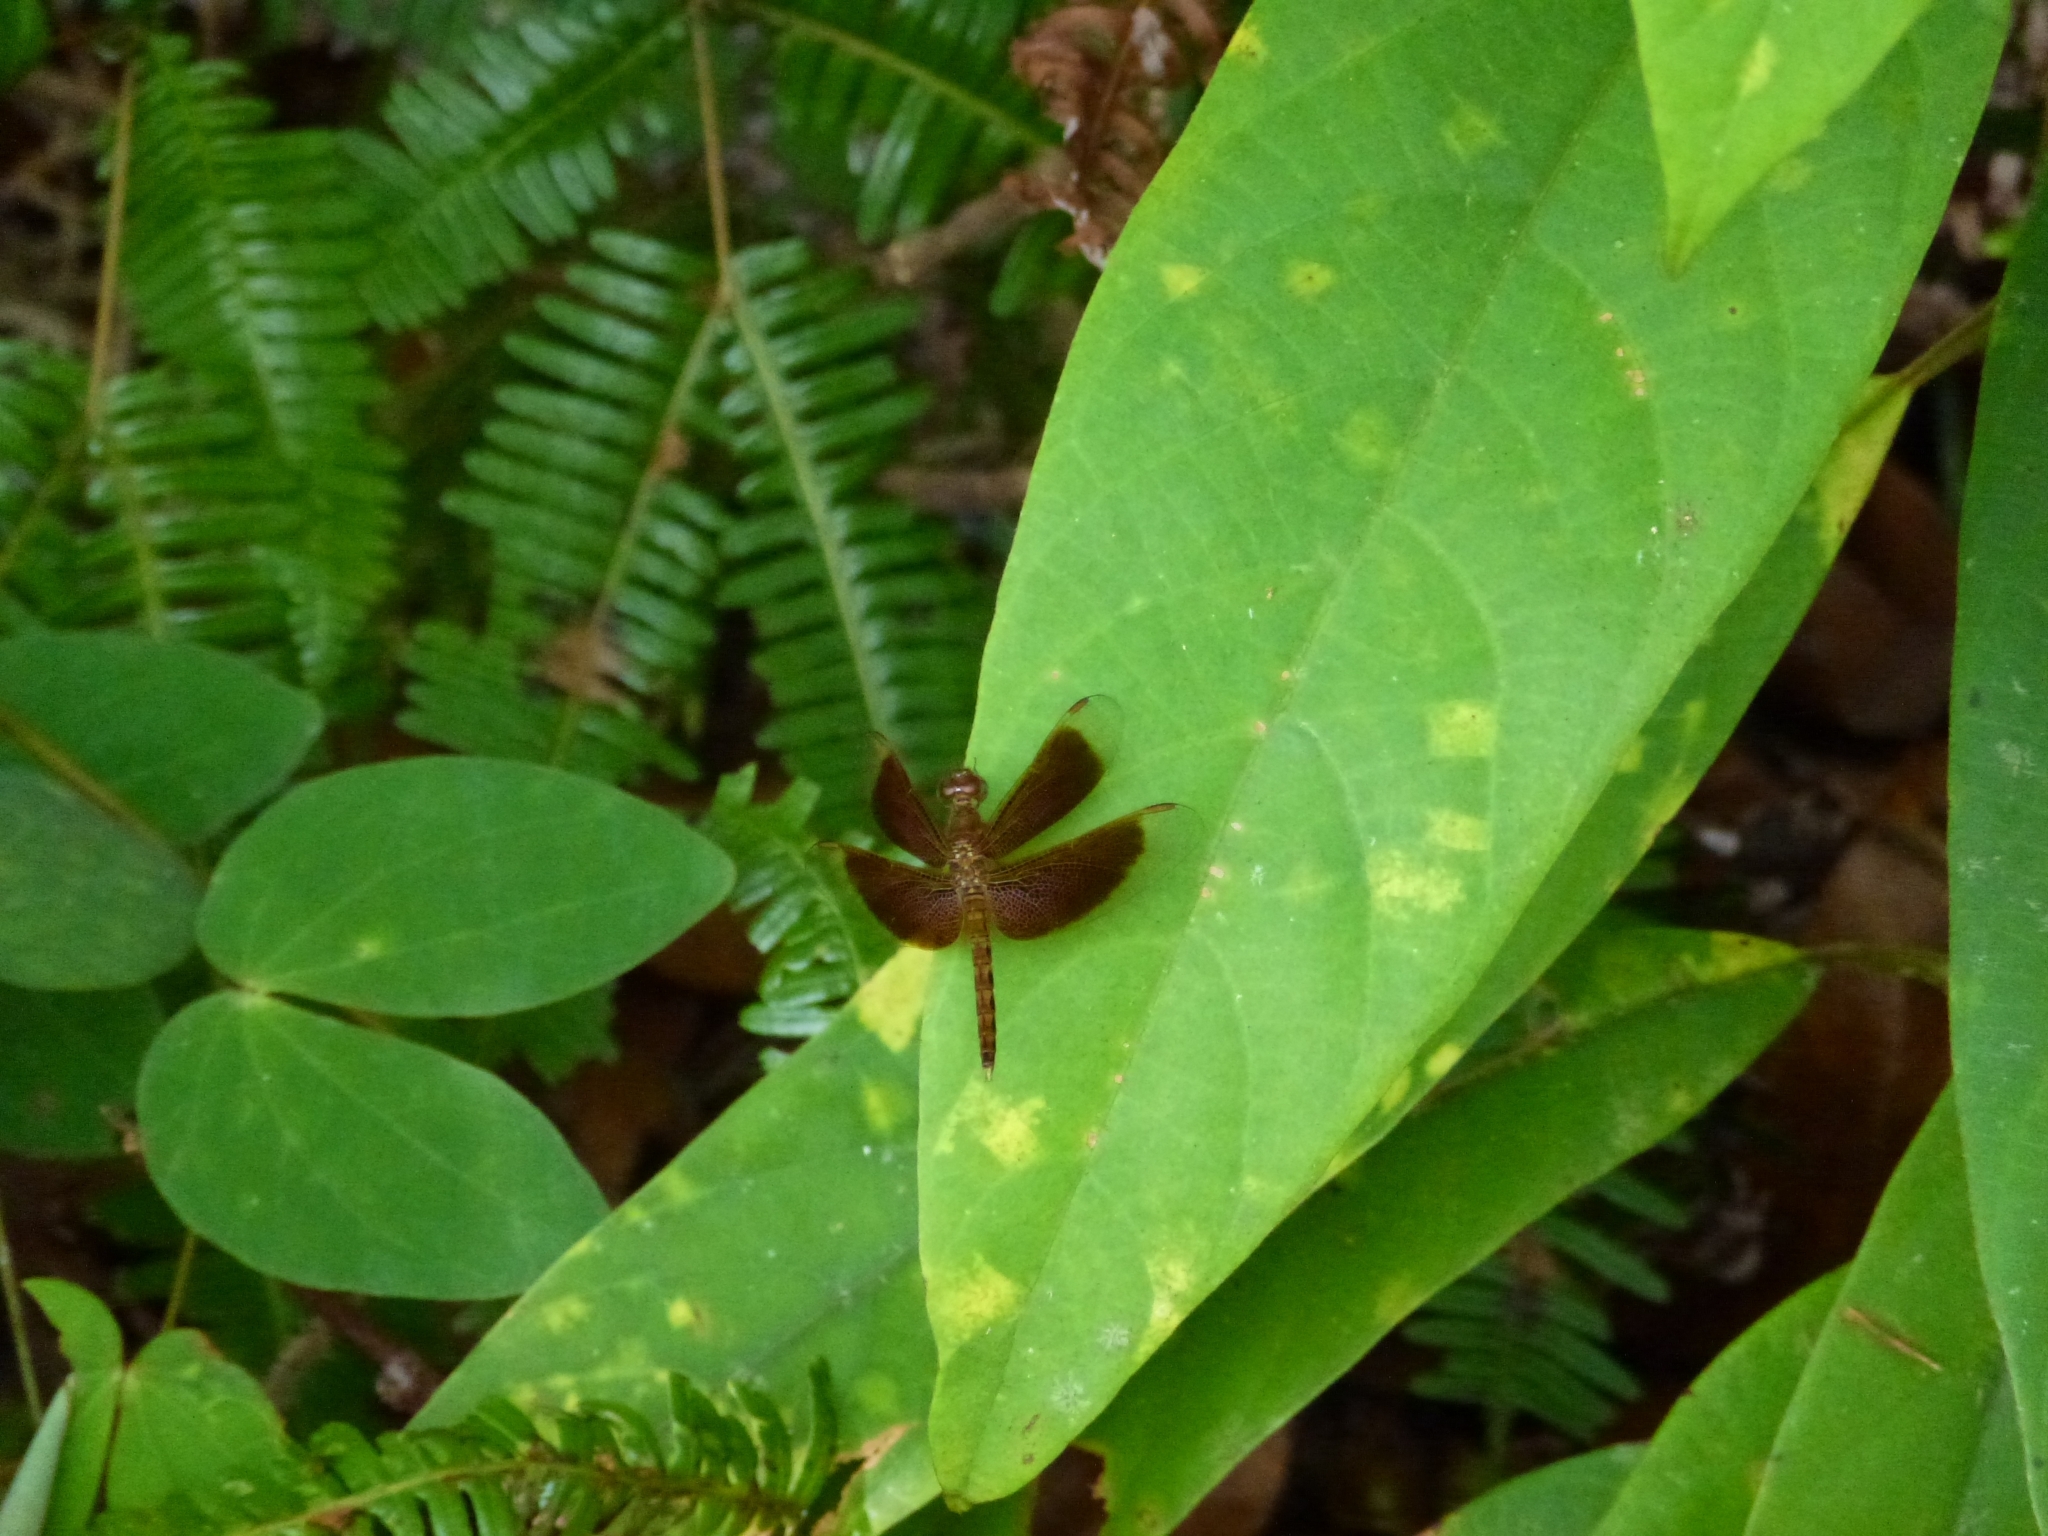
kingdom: Animalia
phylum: Arthropoda
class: Insecta
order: Odonata
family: Libellulidae
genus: Neurothemis
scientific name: Neurothemis fluctuans
